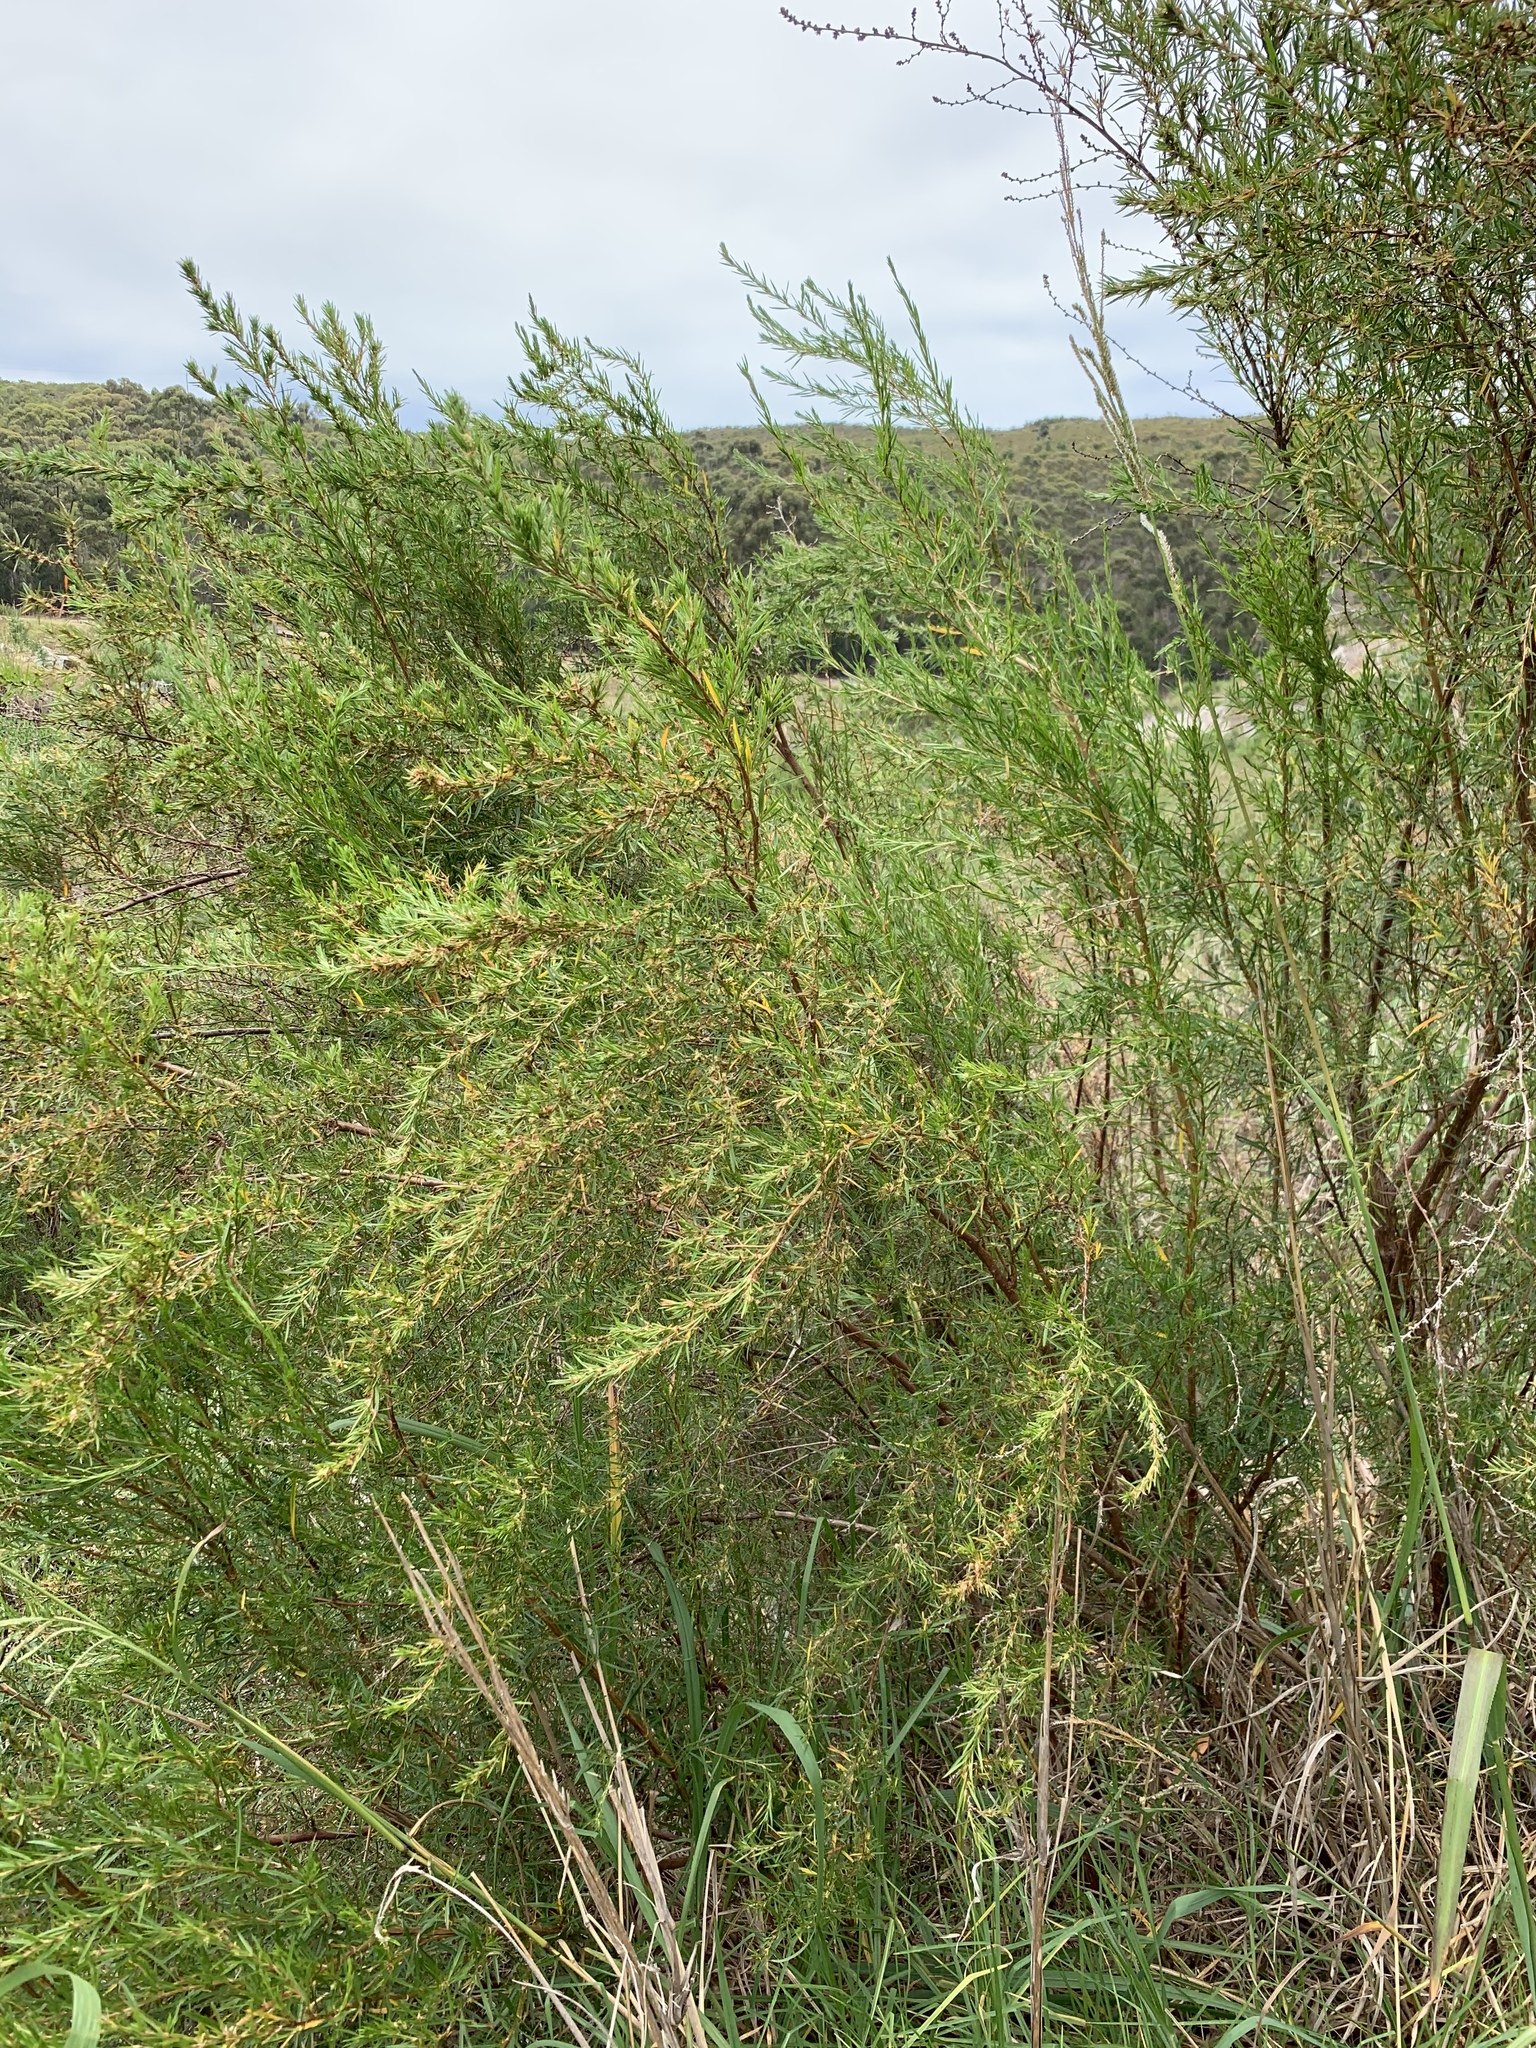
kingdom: Plantae
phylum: Tracheophyta
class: Magnoliopsida
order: Rosales
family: Rosaceae
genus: Cliffortia
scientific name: Cliffortia strobilifera
